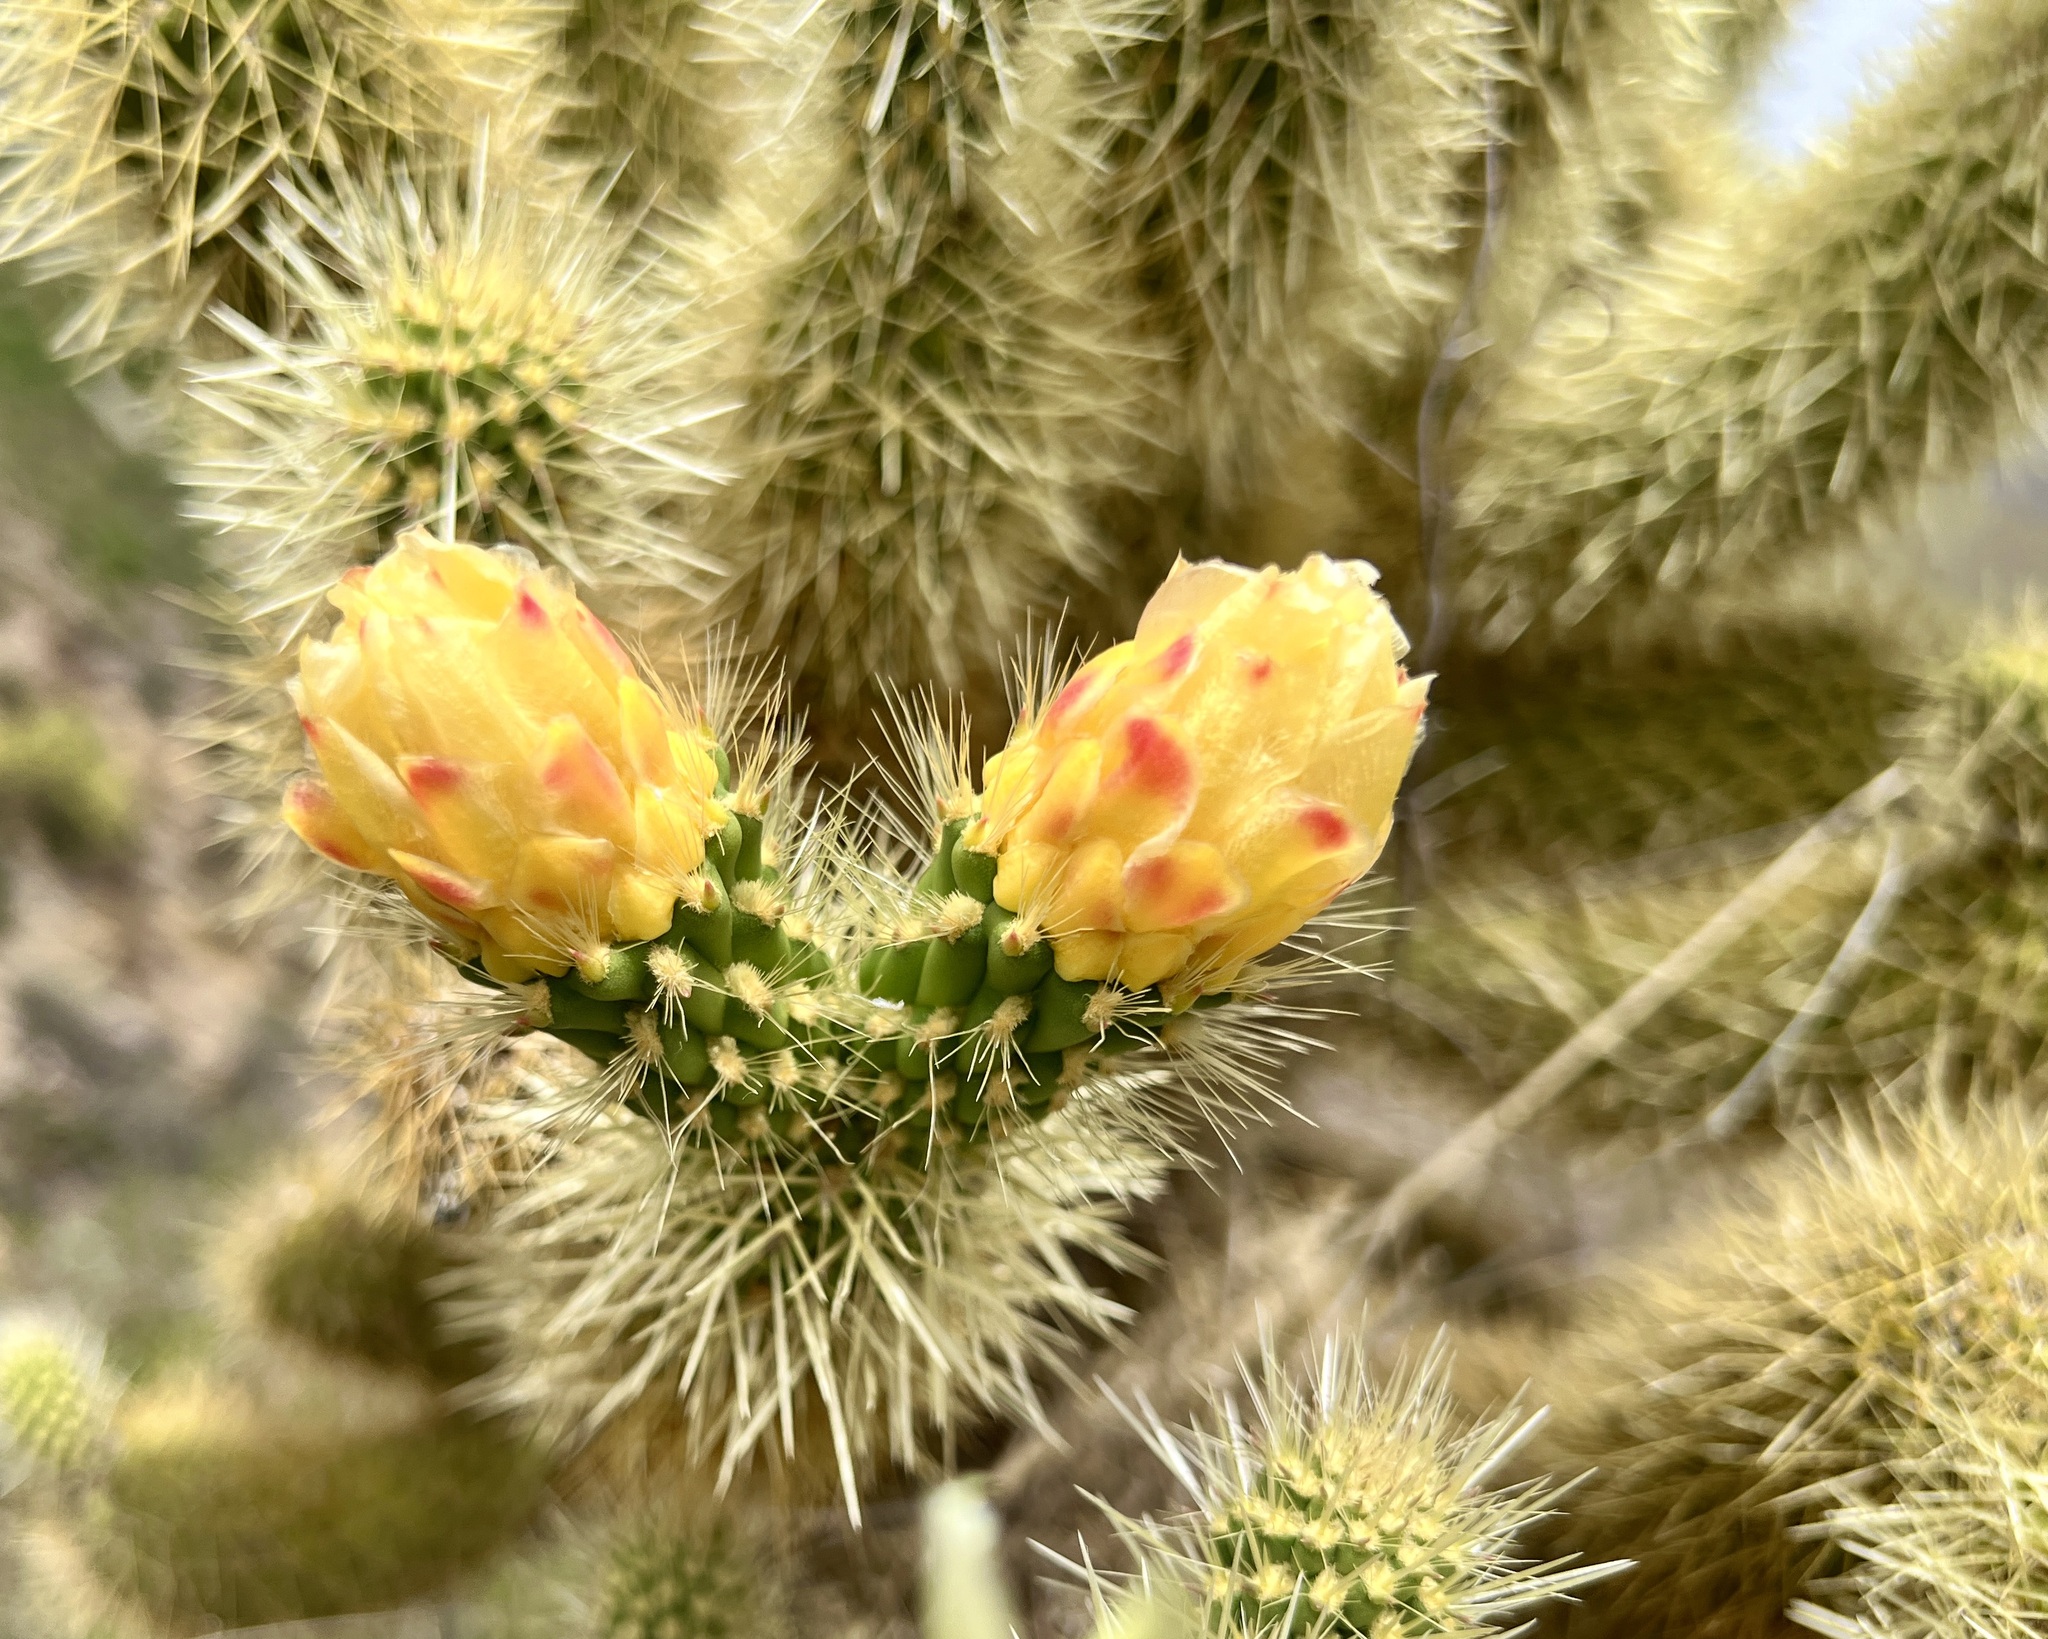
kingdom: Plantae
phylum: Tracheophyta
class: Magnoliopsida
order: Caryophyllales
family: Cactaceae
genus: Cylindropuntia
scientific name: Cylindropuntia fosbergii
